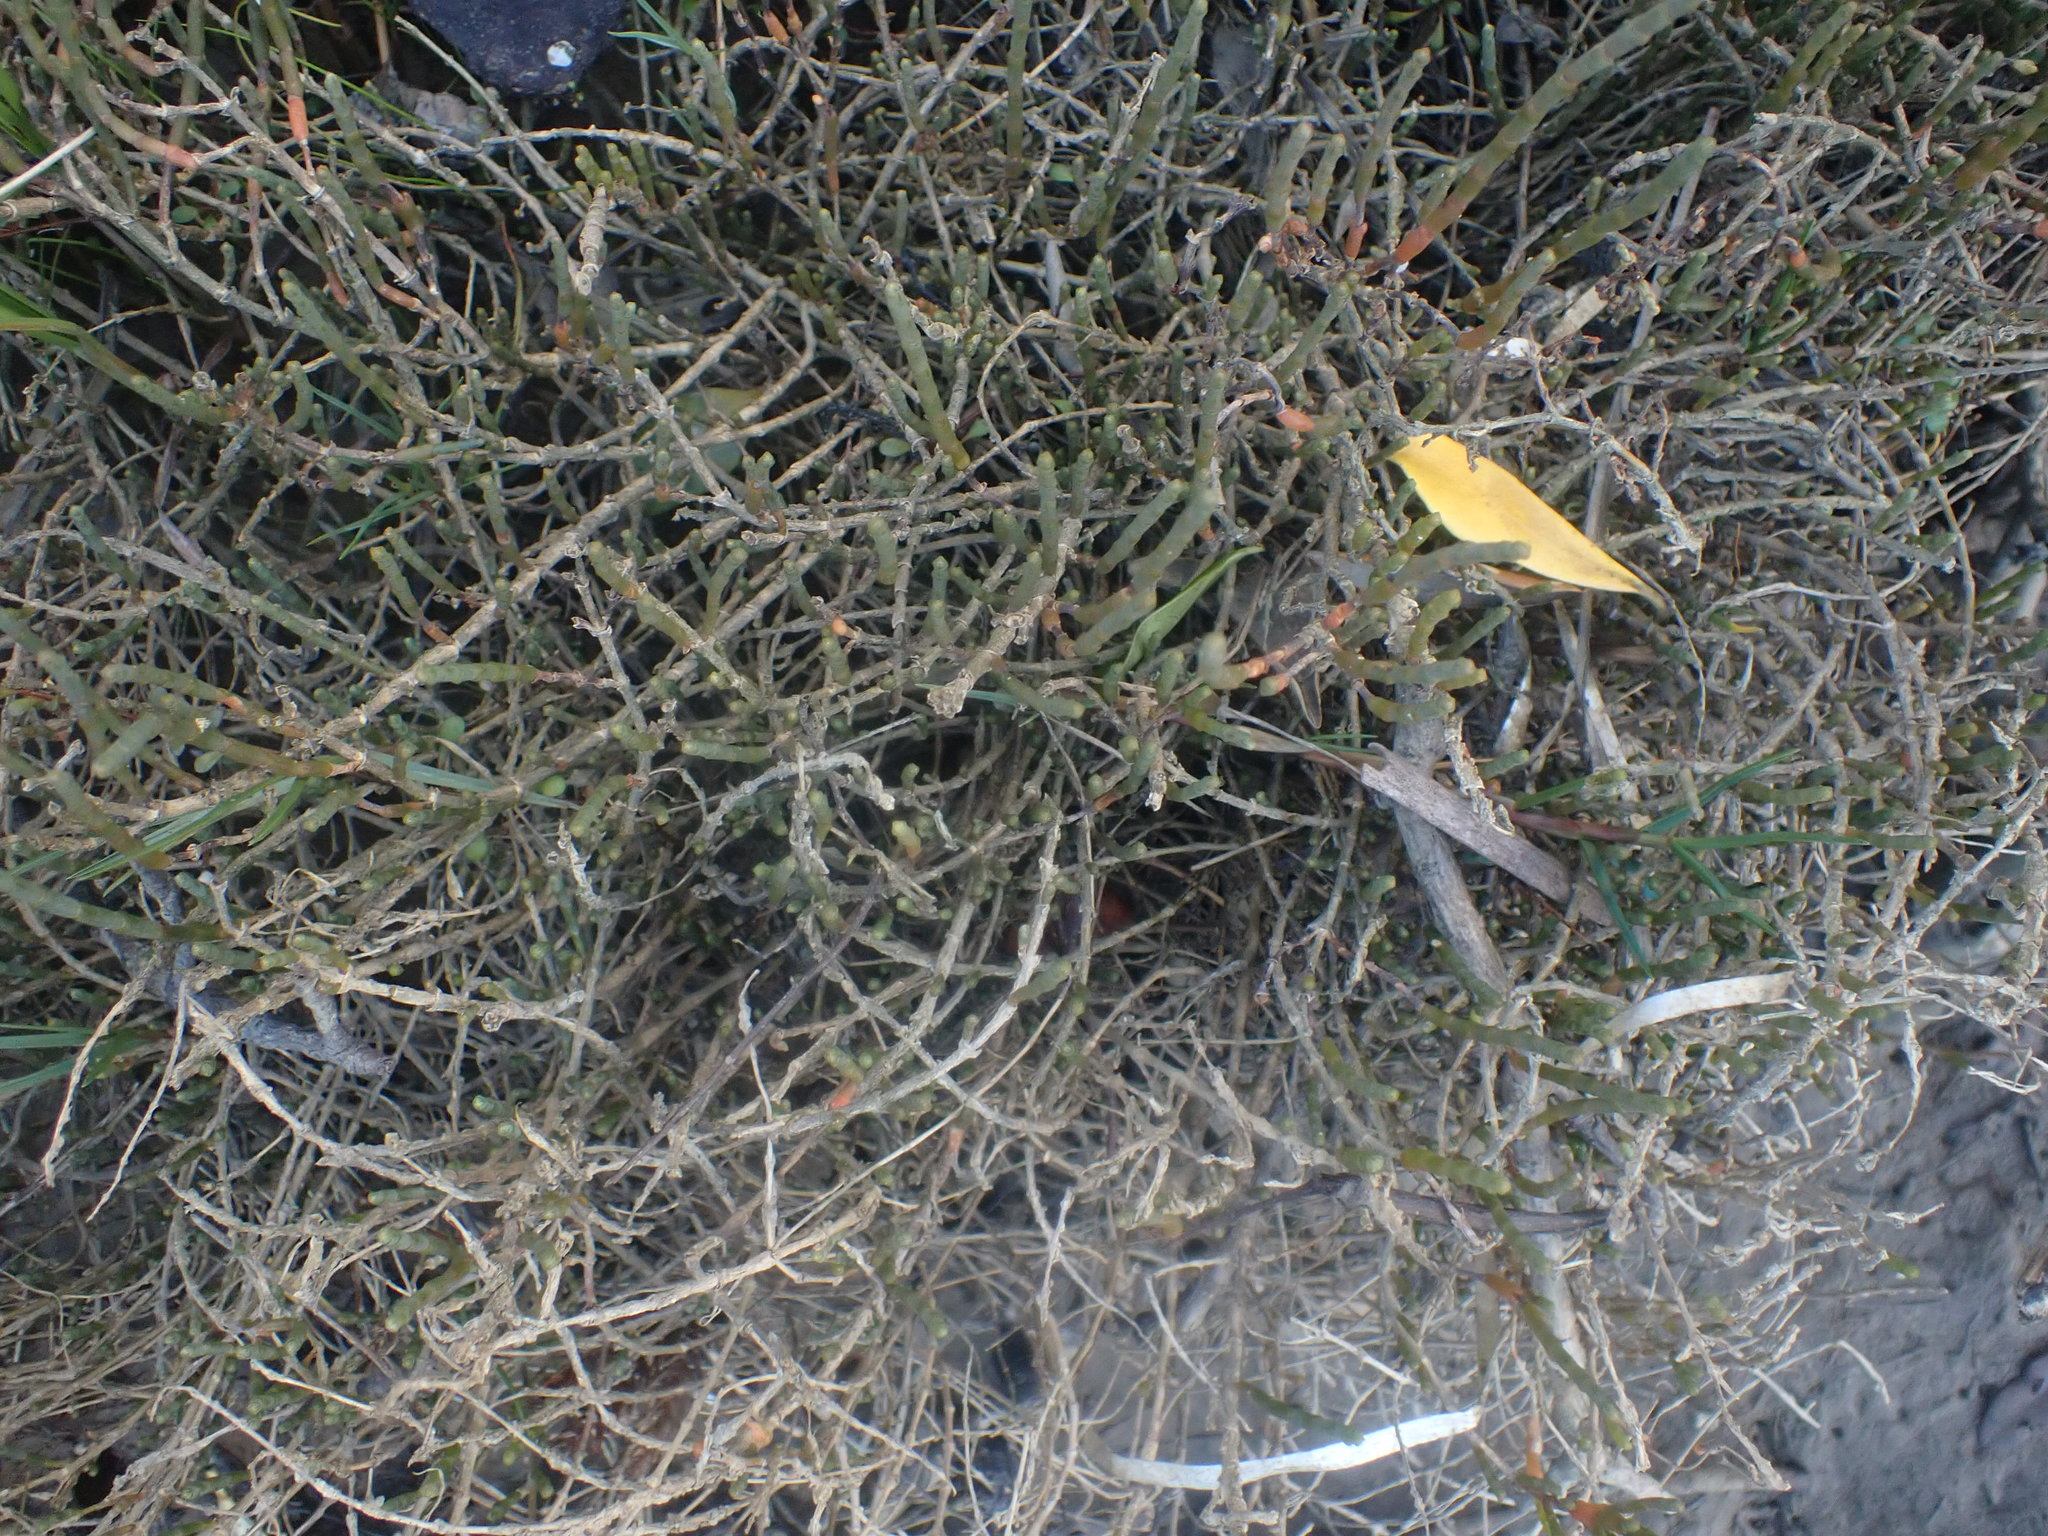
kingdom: Plantae
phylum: Tracheophyta
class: Magnoliopsida
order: Caryophyllales
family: Amaranthaceae
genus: Salicornia
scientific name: Salicornia quinqueflora
